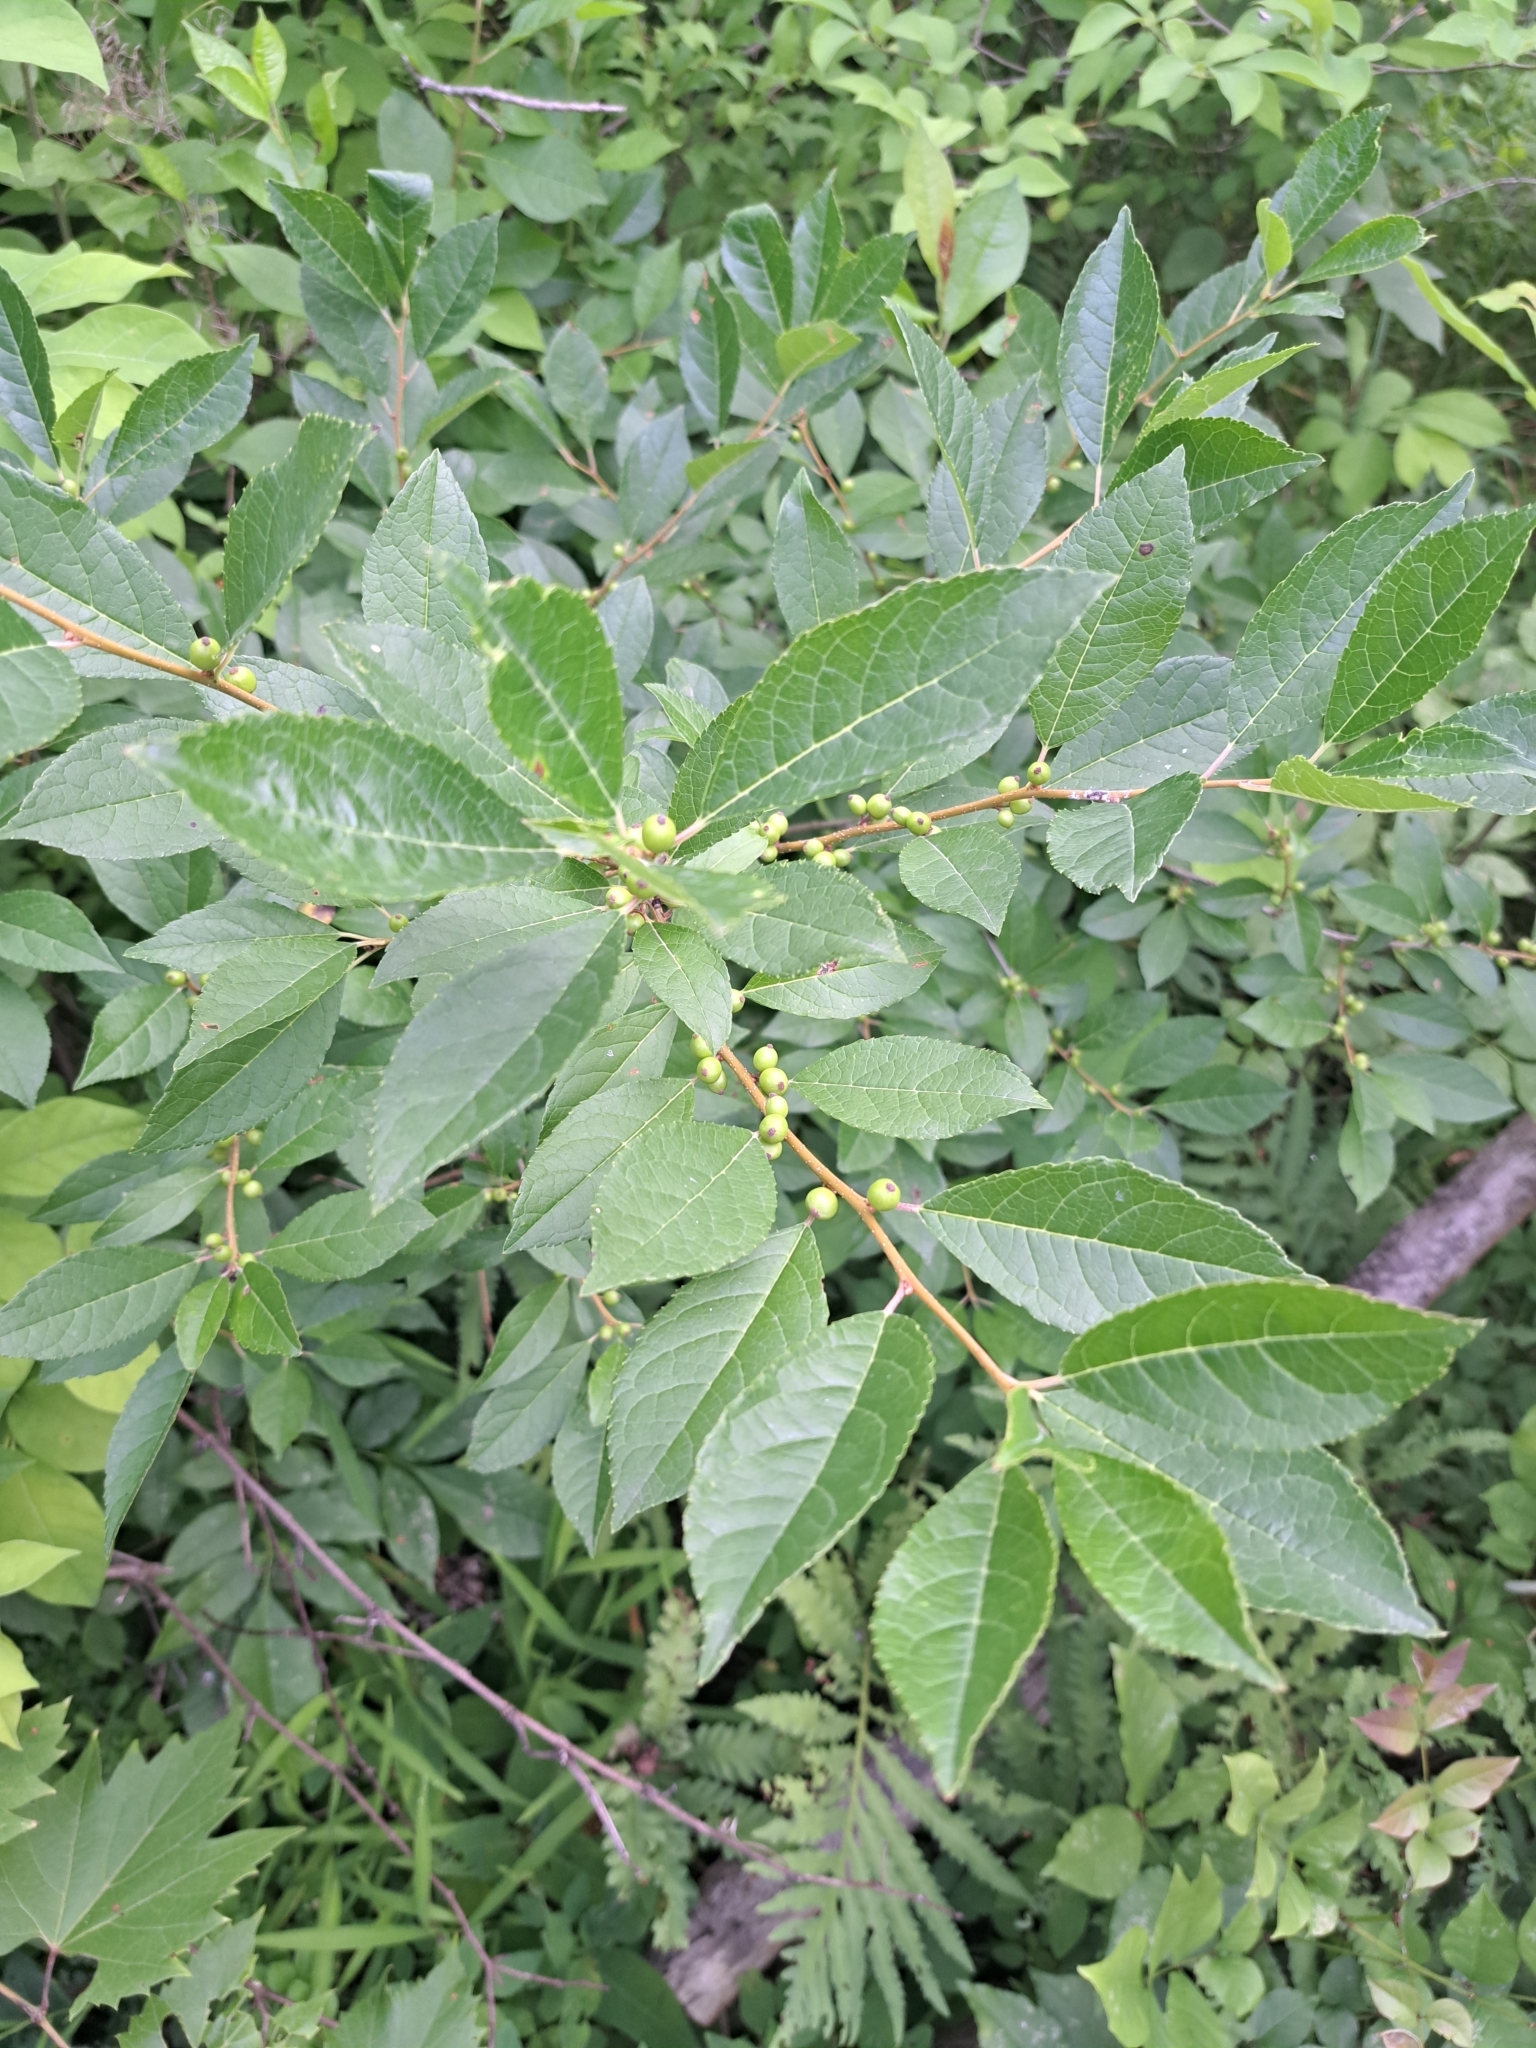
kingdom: Plantae
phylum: Tracheophyta
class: Magnoliopsida
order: Aquifoliales
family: Aquifoliaceae
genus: Ilex
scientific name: Ilex verticillata
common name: Virginia winterberry
